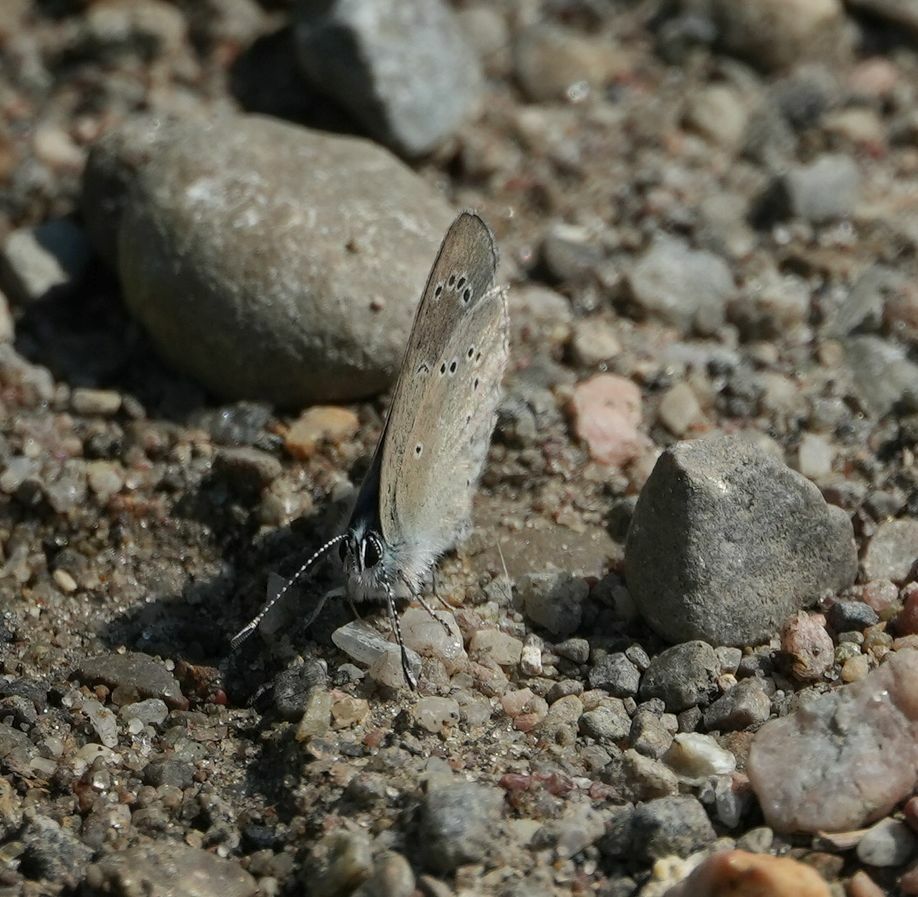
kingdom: Animalia
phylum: Arthropoda
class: Insecta
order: Lepidoptera
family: Lycaenidae
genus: Glaucopsyche
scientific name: Glaucopsyche lygdamus
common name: Silvery blue
